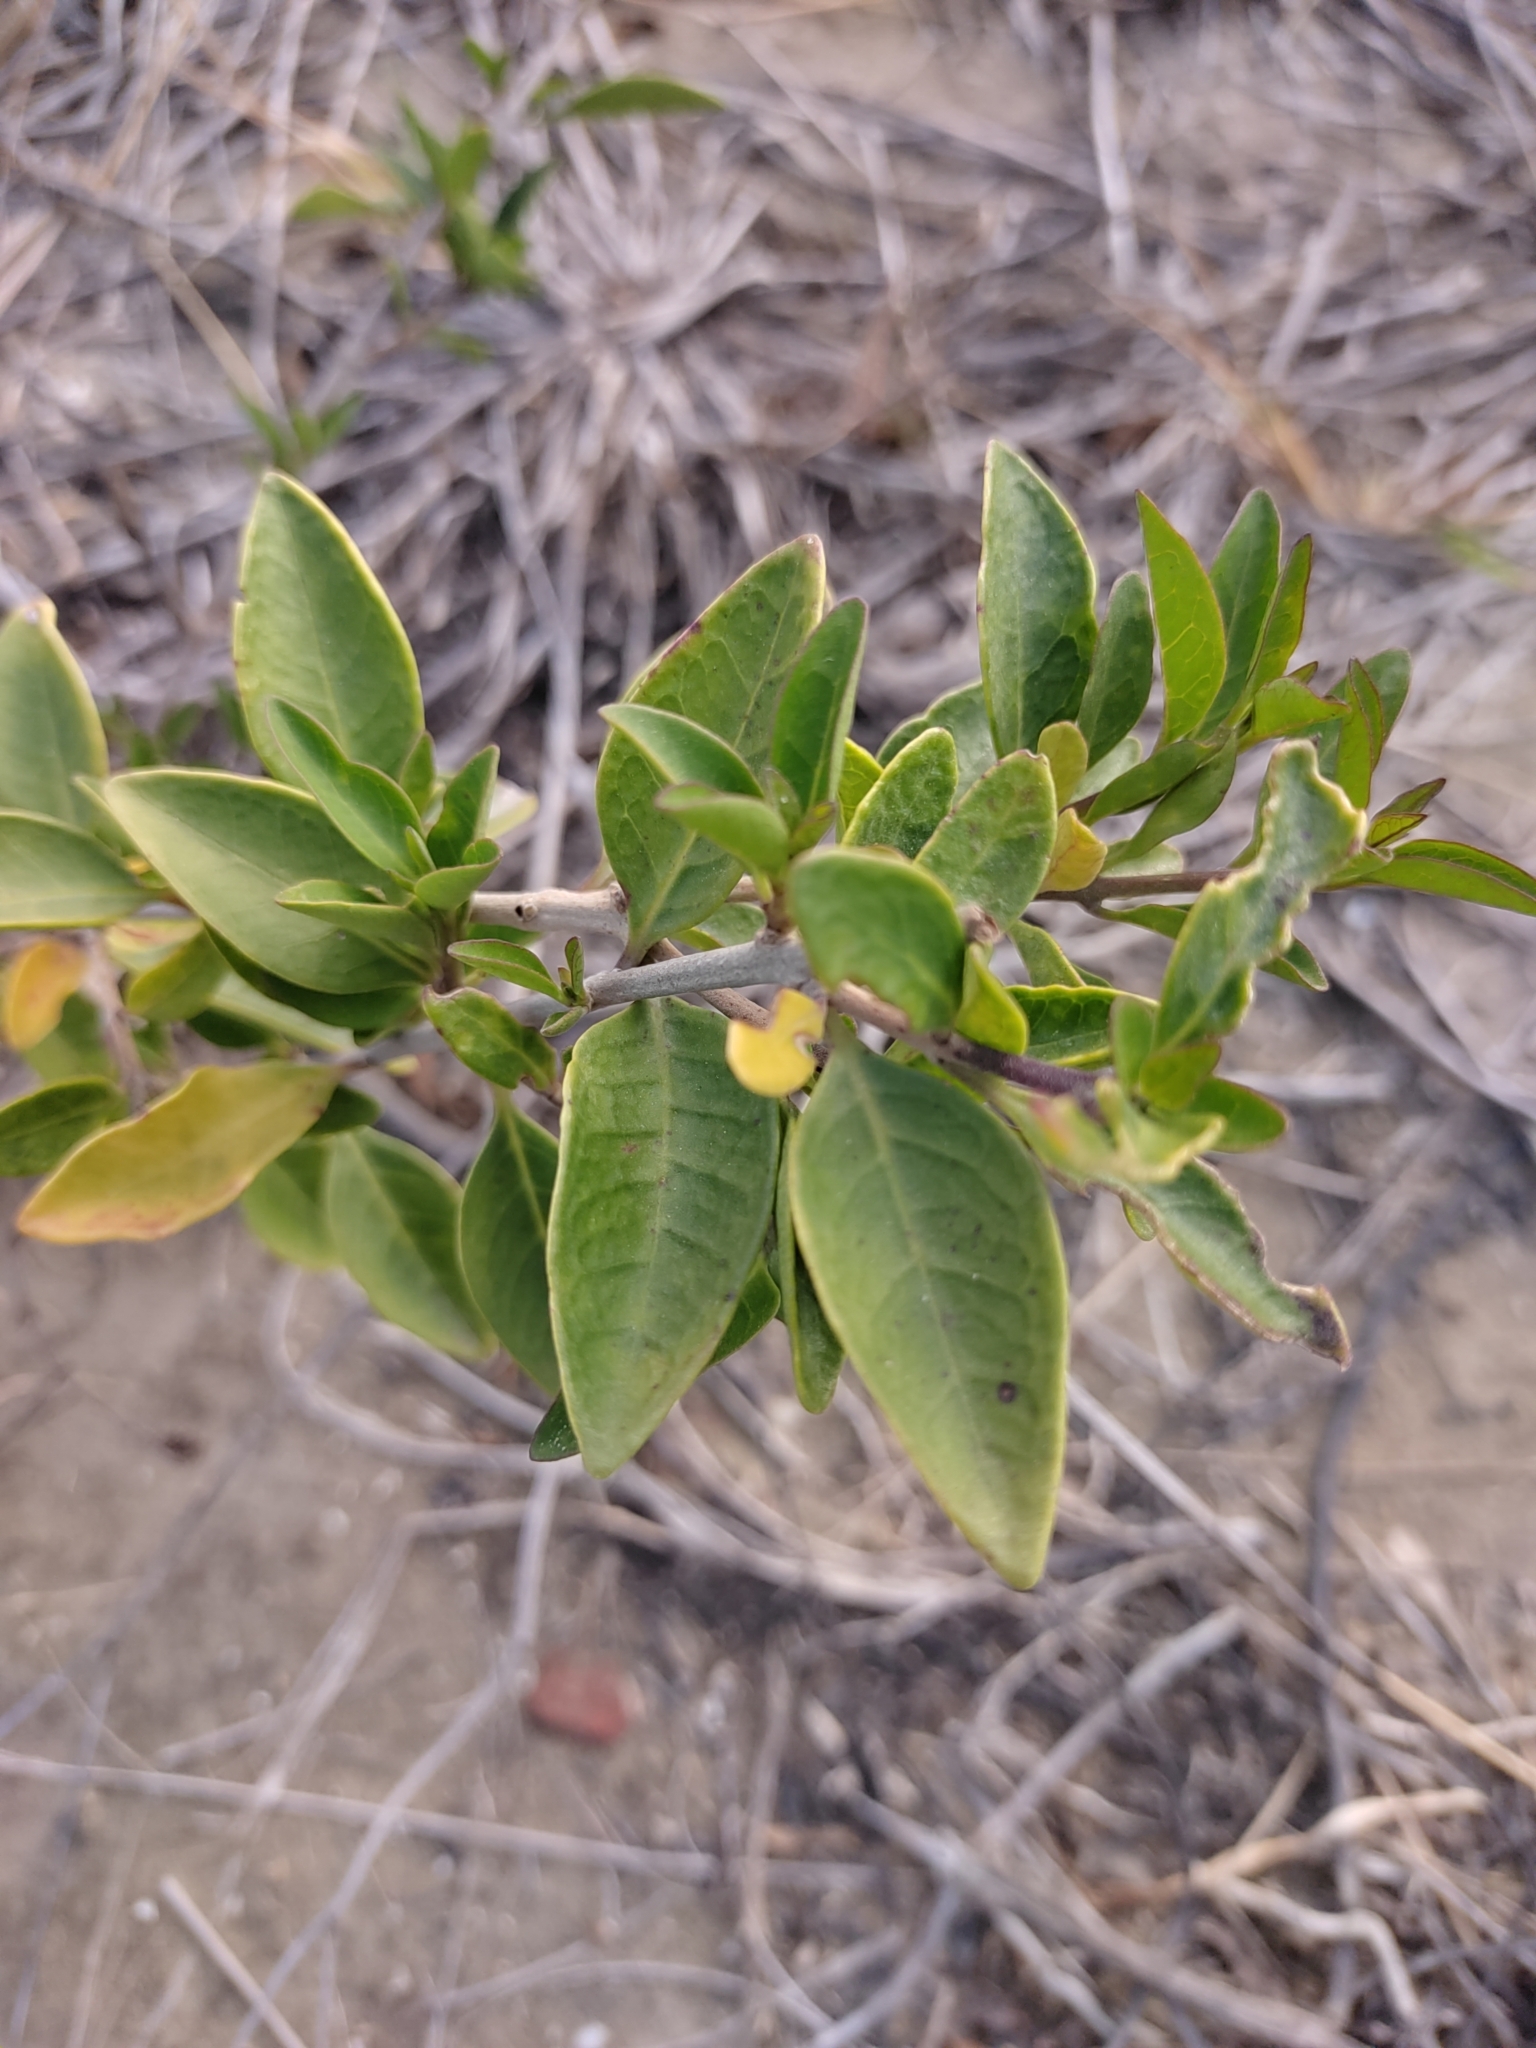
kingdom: Plantae
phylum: Tracheophyta
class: Magnoliopsida
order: Lamiales
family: Lamiaceae
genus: Volkameria
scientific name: Volkameria inermis
